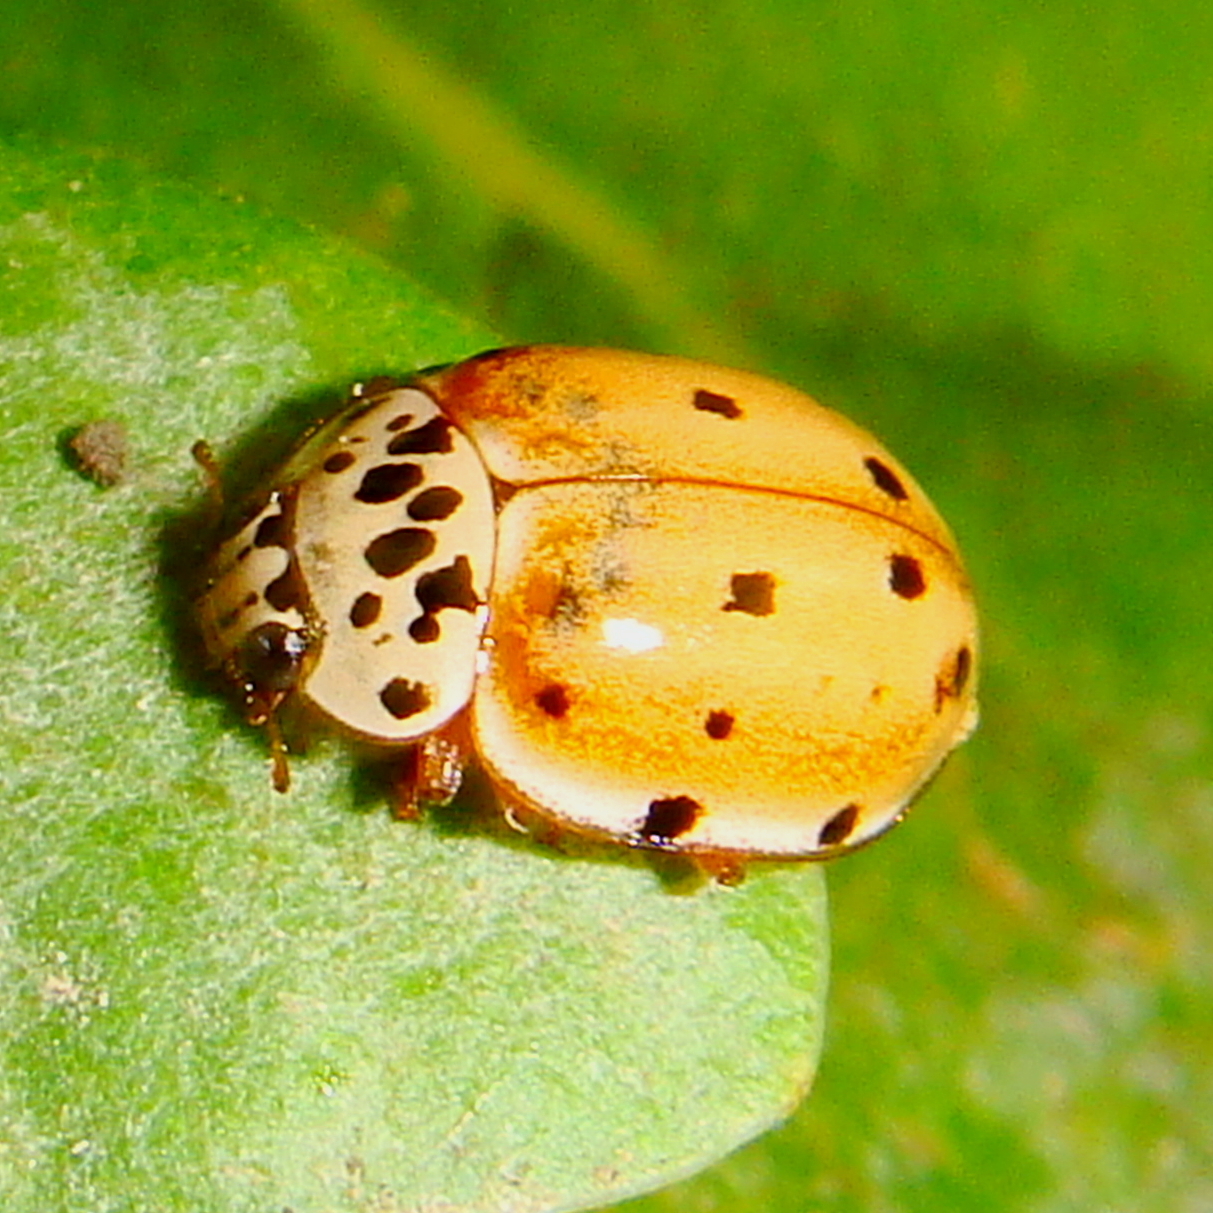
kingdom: Animalia
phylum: Arthropoda
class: Insecta
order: Coleoptera
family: Coccinellidae
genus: Harmonia
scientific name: Harmonia quadripunctata
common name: Cream-streaked ladybird
